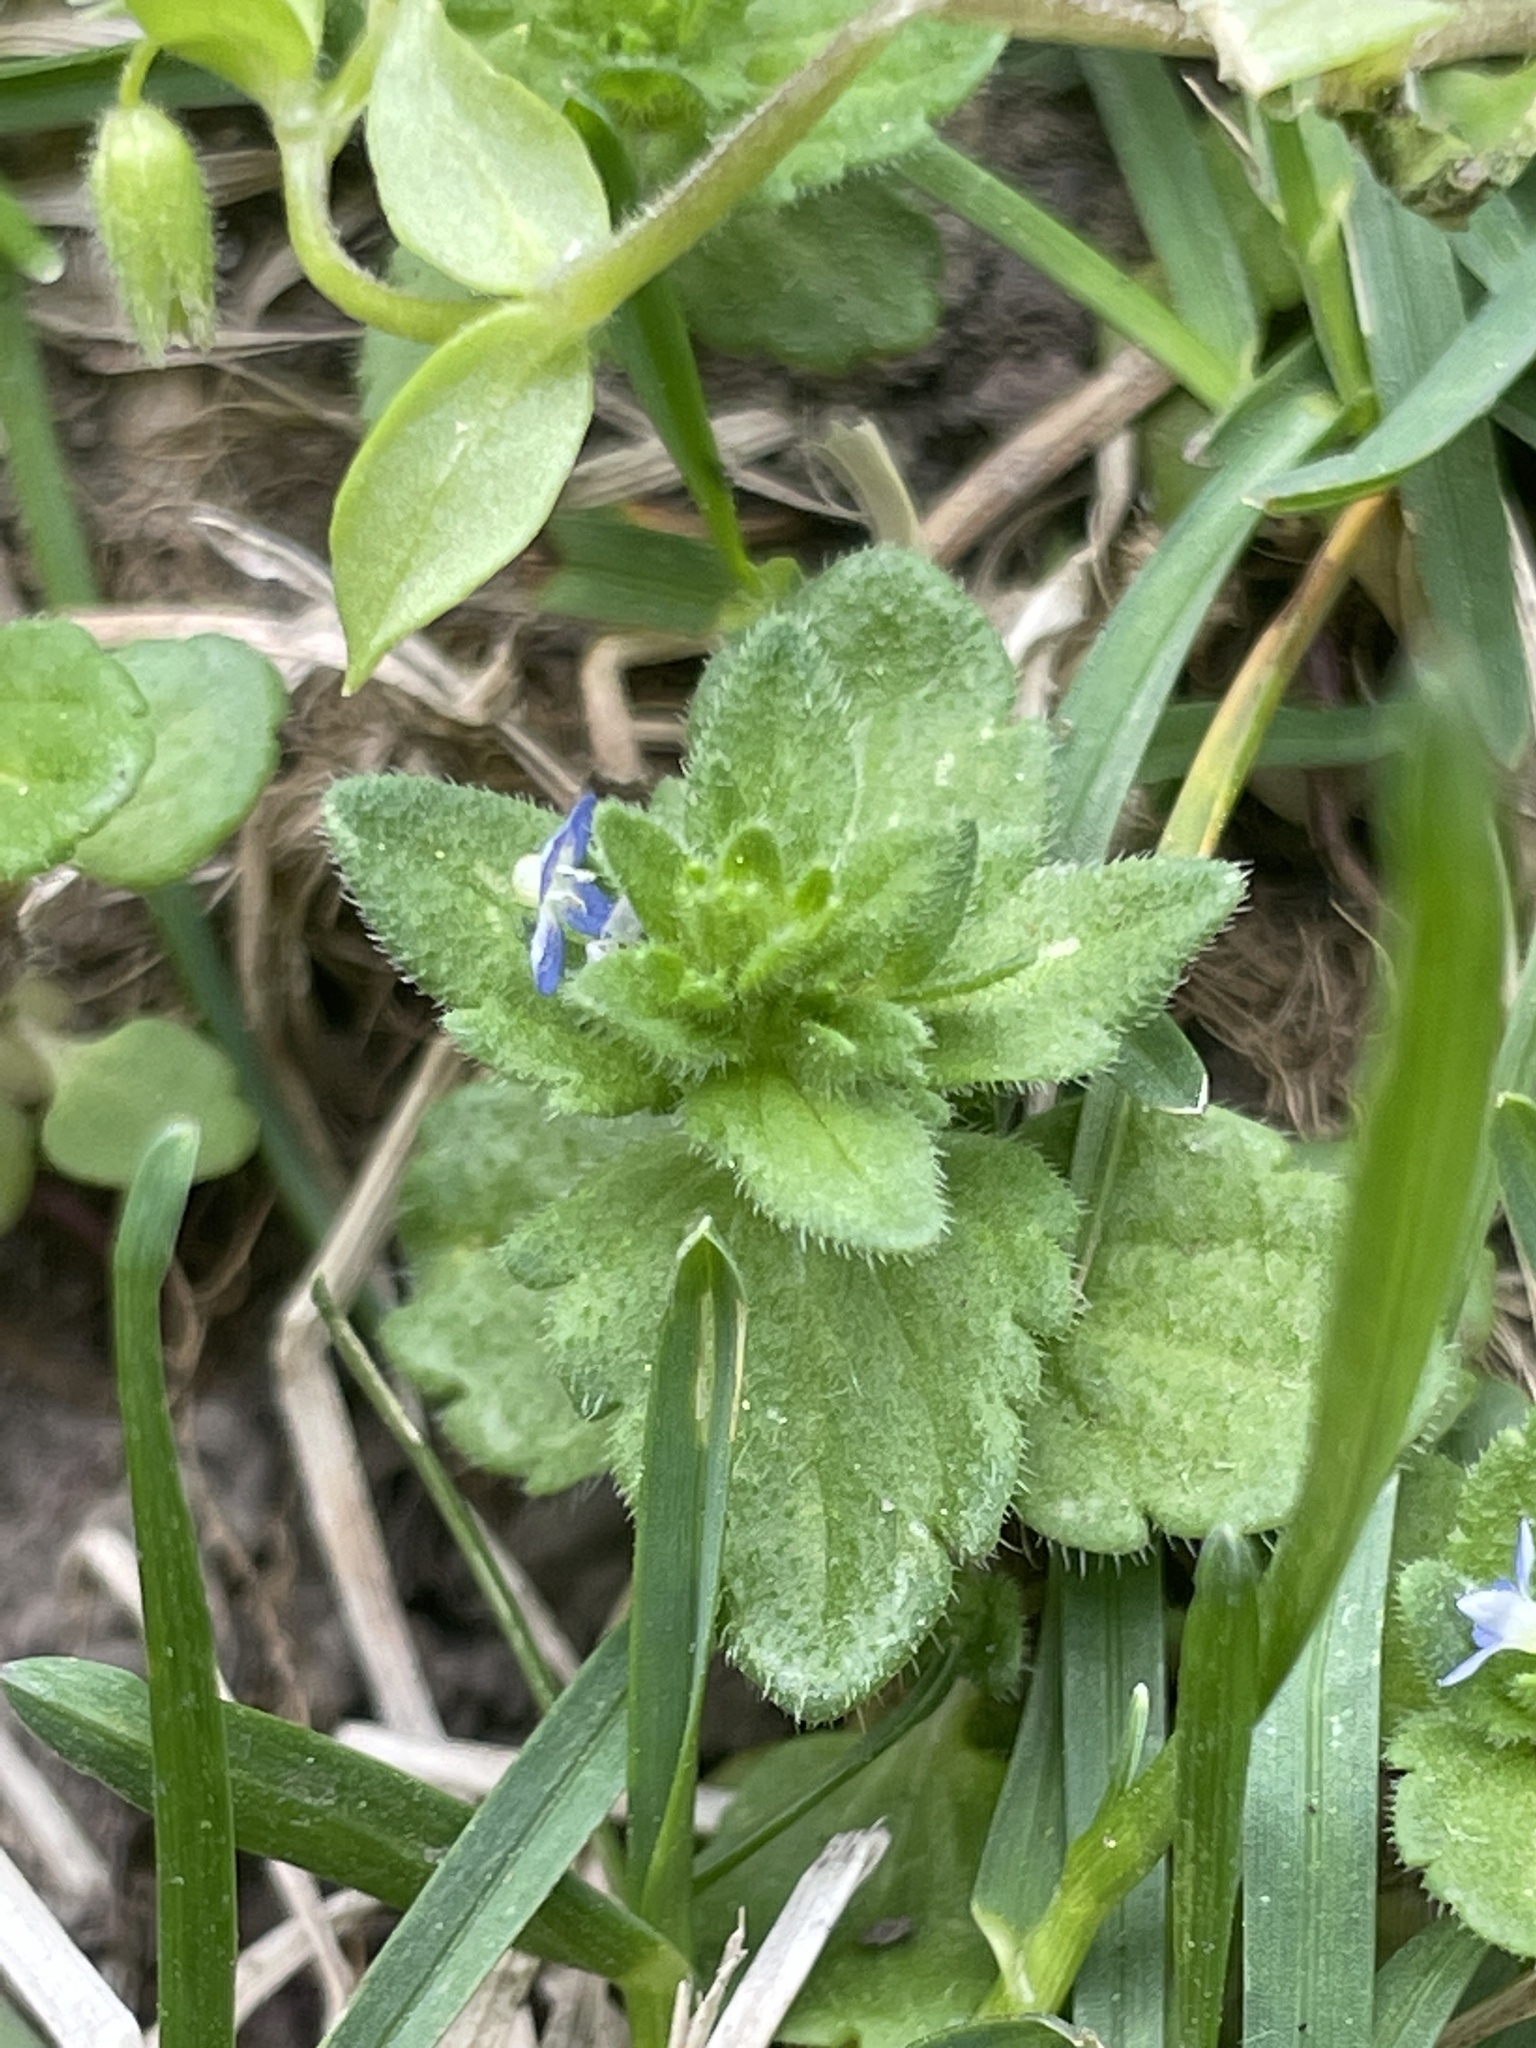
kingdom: Plantae
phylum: Tracheophyta
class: Magnoliopsida
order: Lamiales
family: Plantaginaceae
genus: Veronica
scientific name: Veronica arvensis
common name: Corn speedwell
